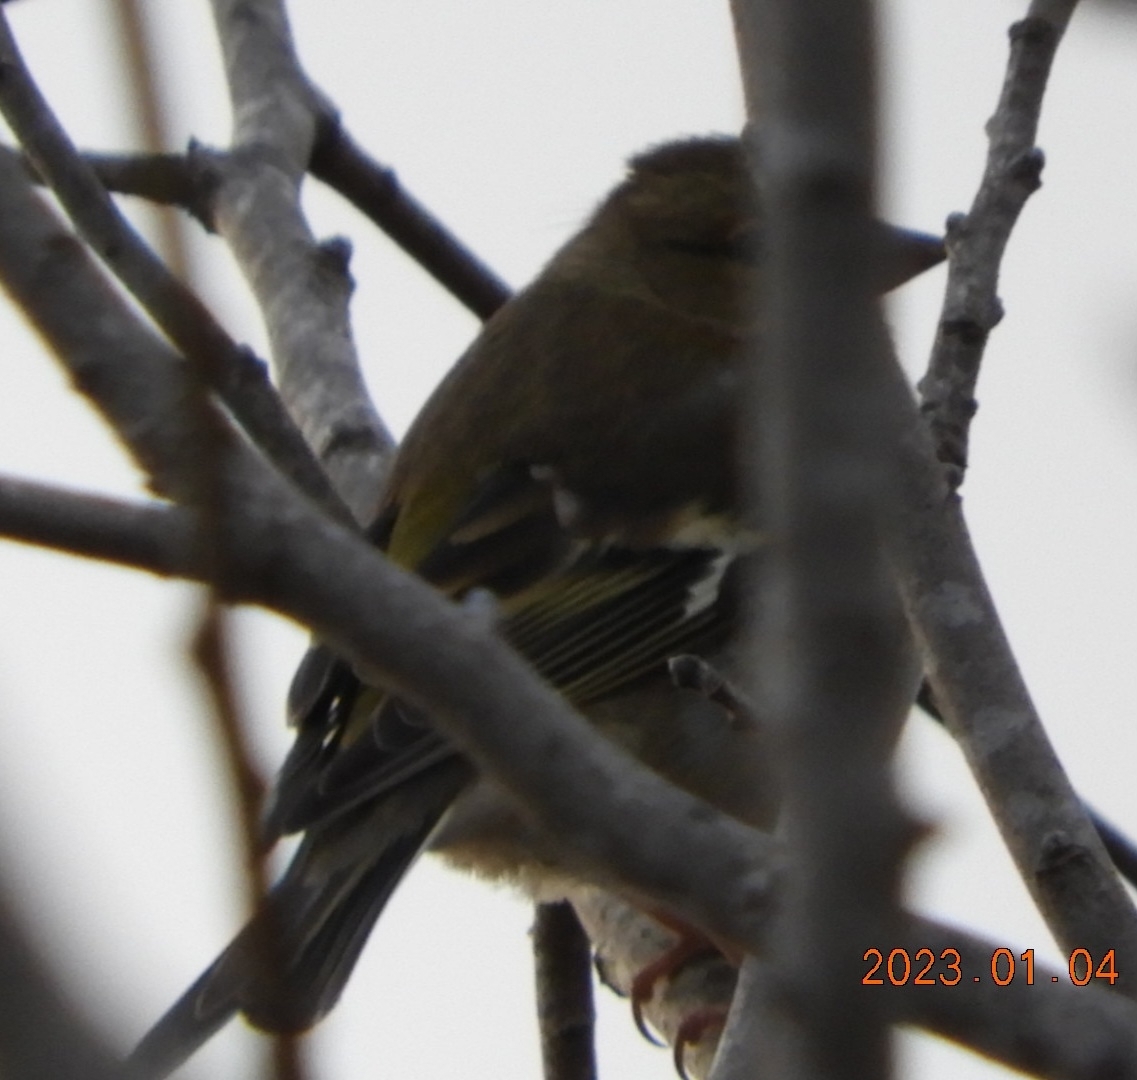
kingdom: Animalia
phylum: Chordata
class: Aves
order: Passeriformes
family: Fringillidae
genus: Fringilla
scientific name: Fringilla coelebs
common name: Common chaffinch
